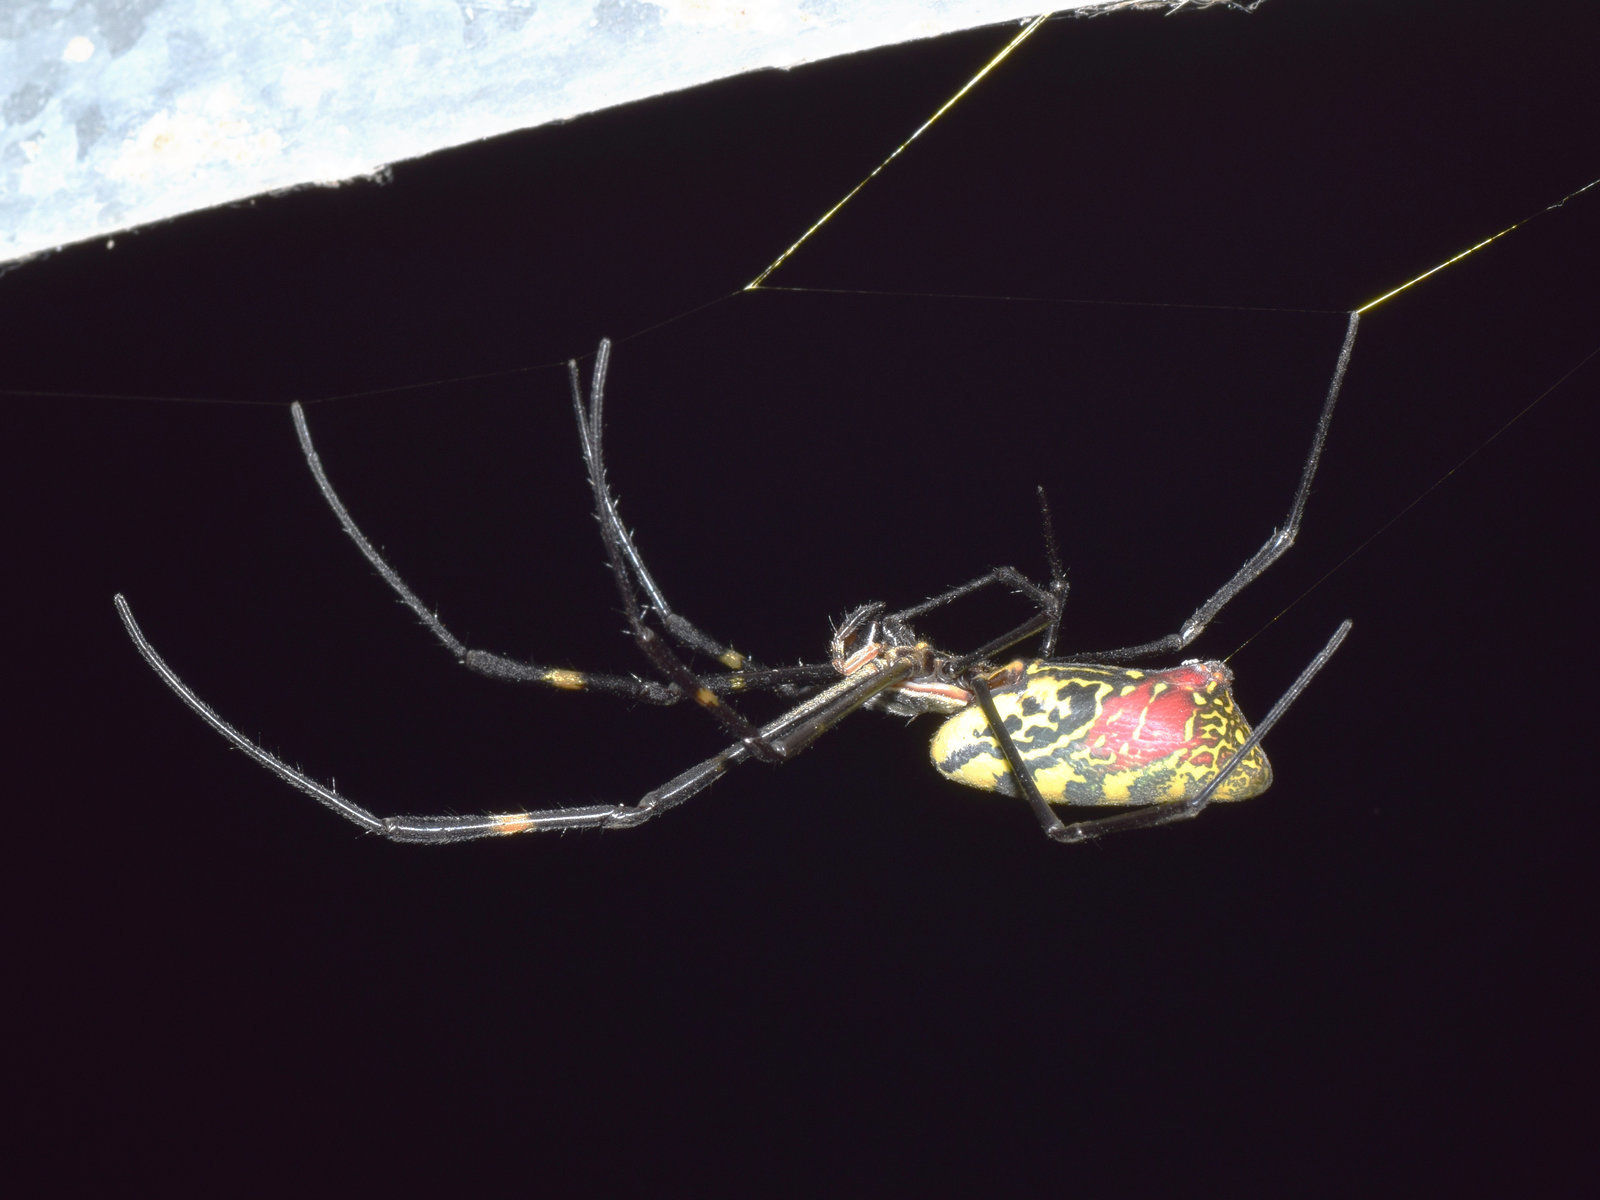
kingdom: Animalia
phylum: Arthropoda
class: Arachnida
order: Araneae
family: Araneidae
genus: Trichonephila
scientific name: Trichonephila clavata
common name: Jorō spider
